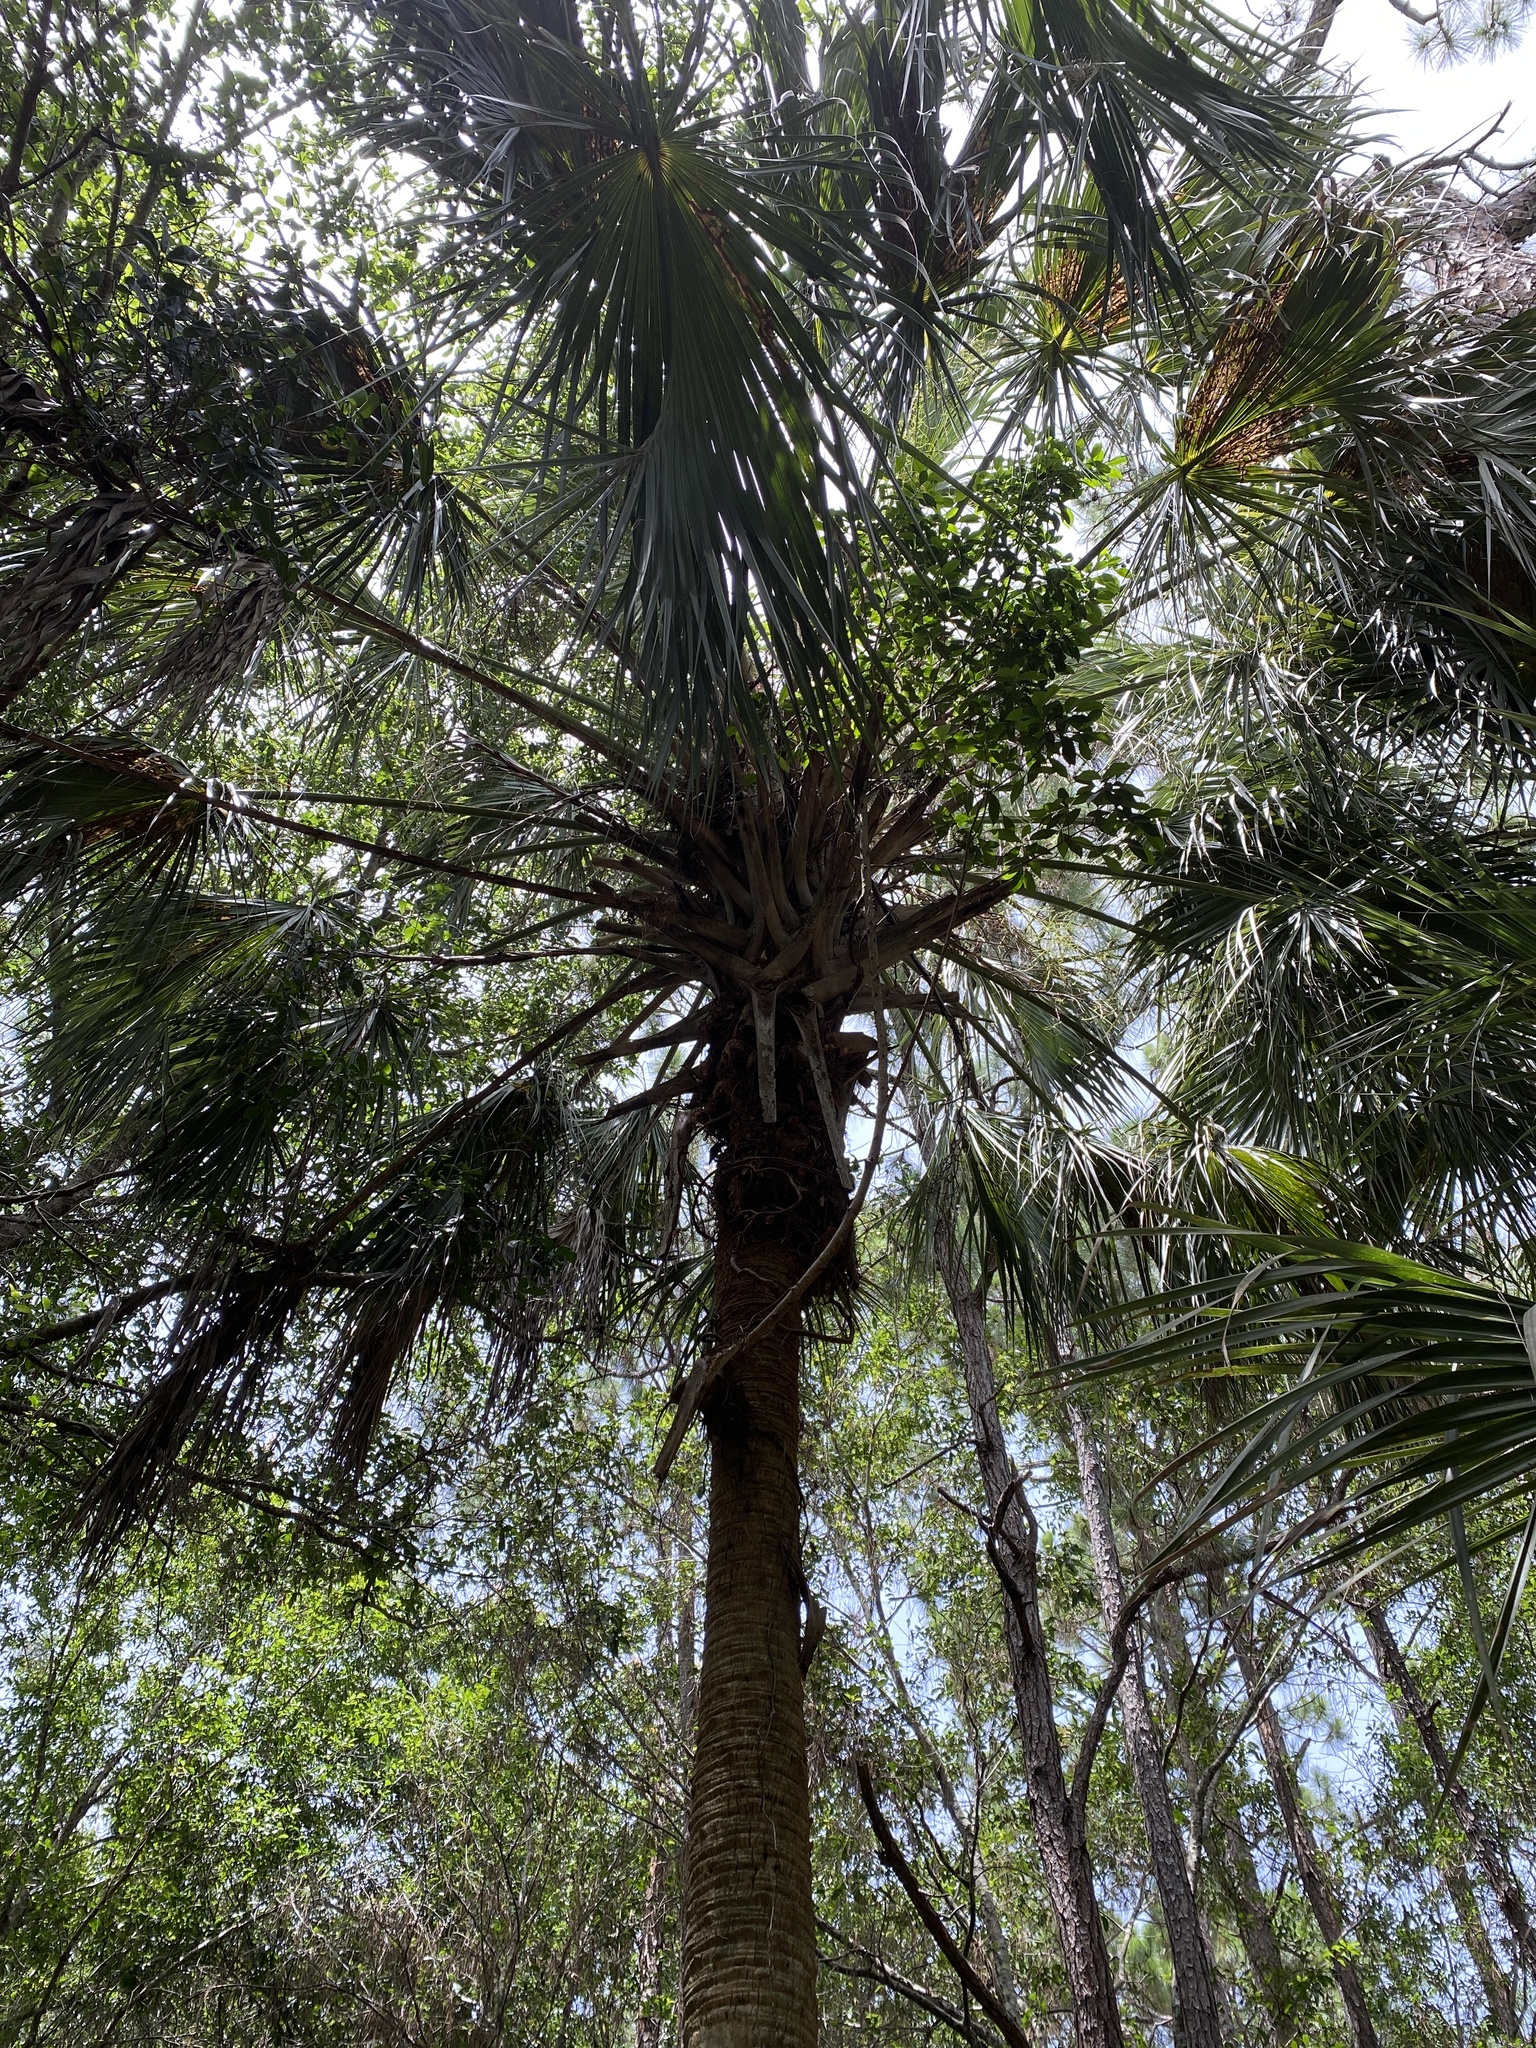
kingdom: Plantae
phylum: Tracheophyta
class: Liliopsida
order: Arecales
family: Arecaceae
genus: Sabal
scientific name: Sabal palmetto
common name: Blue palmetto
